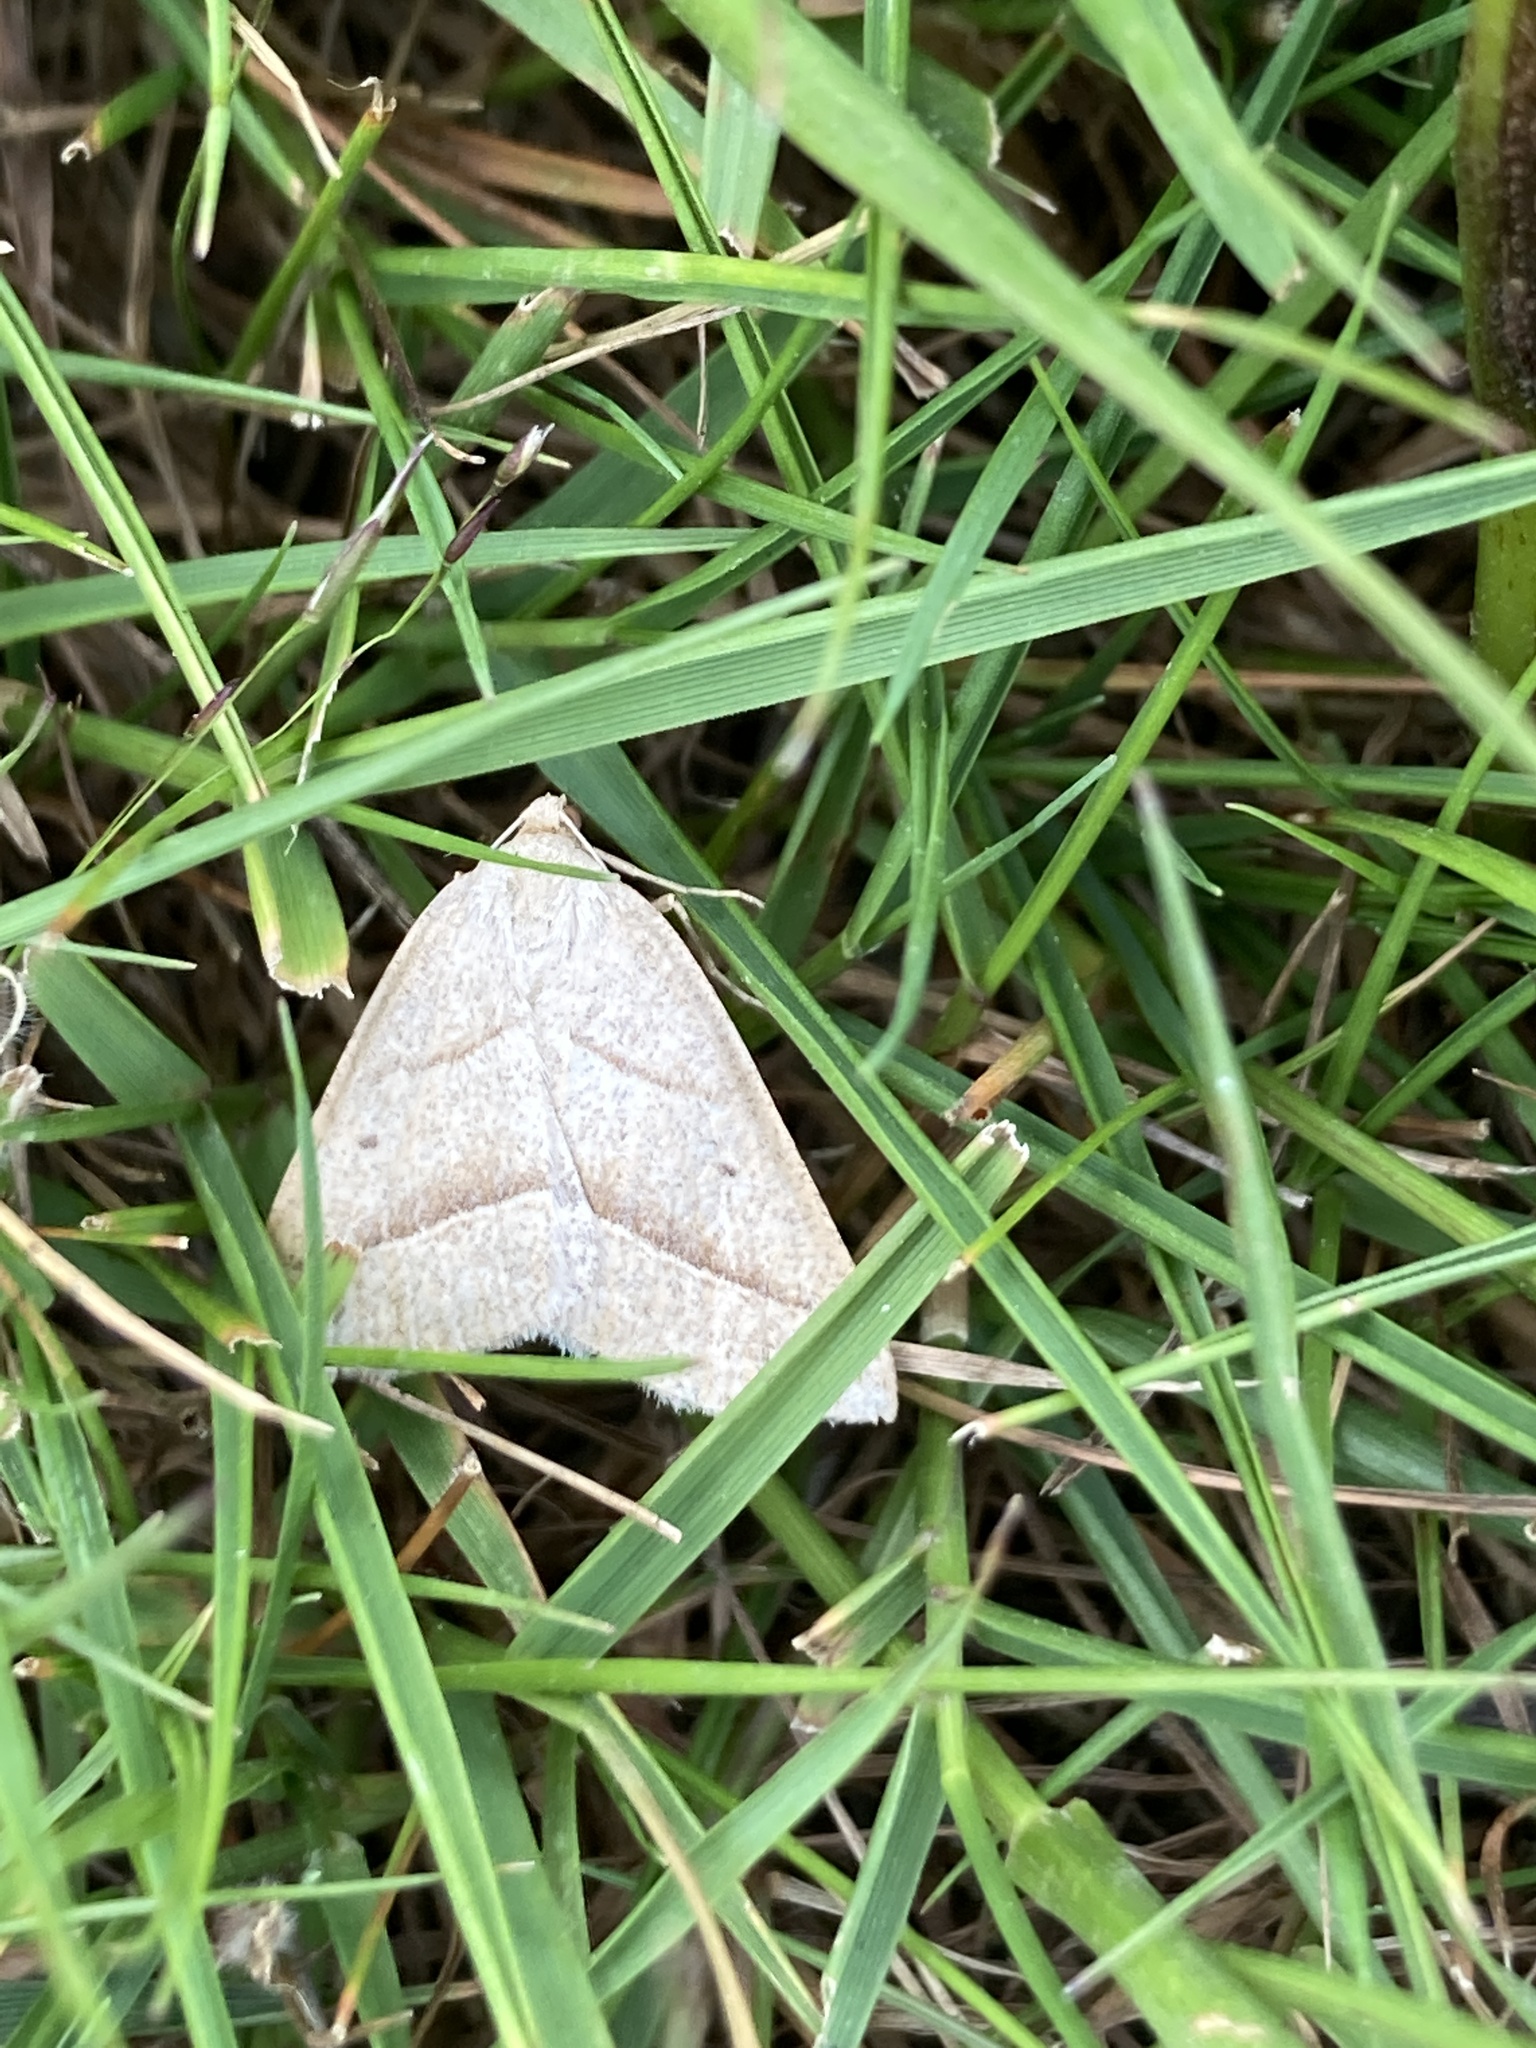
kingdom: Animalia
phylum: Arthropoda
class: Insecta
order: Lepidoptera
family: Pterophoridae
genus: Pterophorus
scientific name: Pterophorus Petrophora chlorosata
